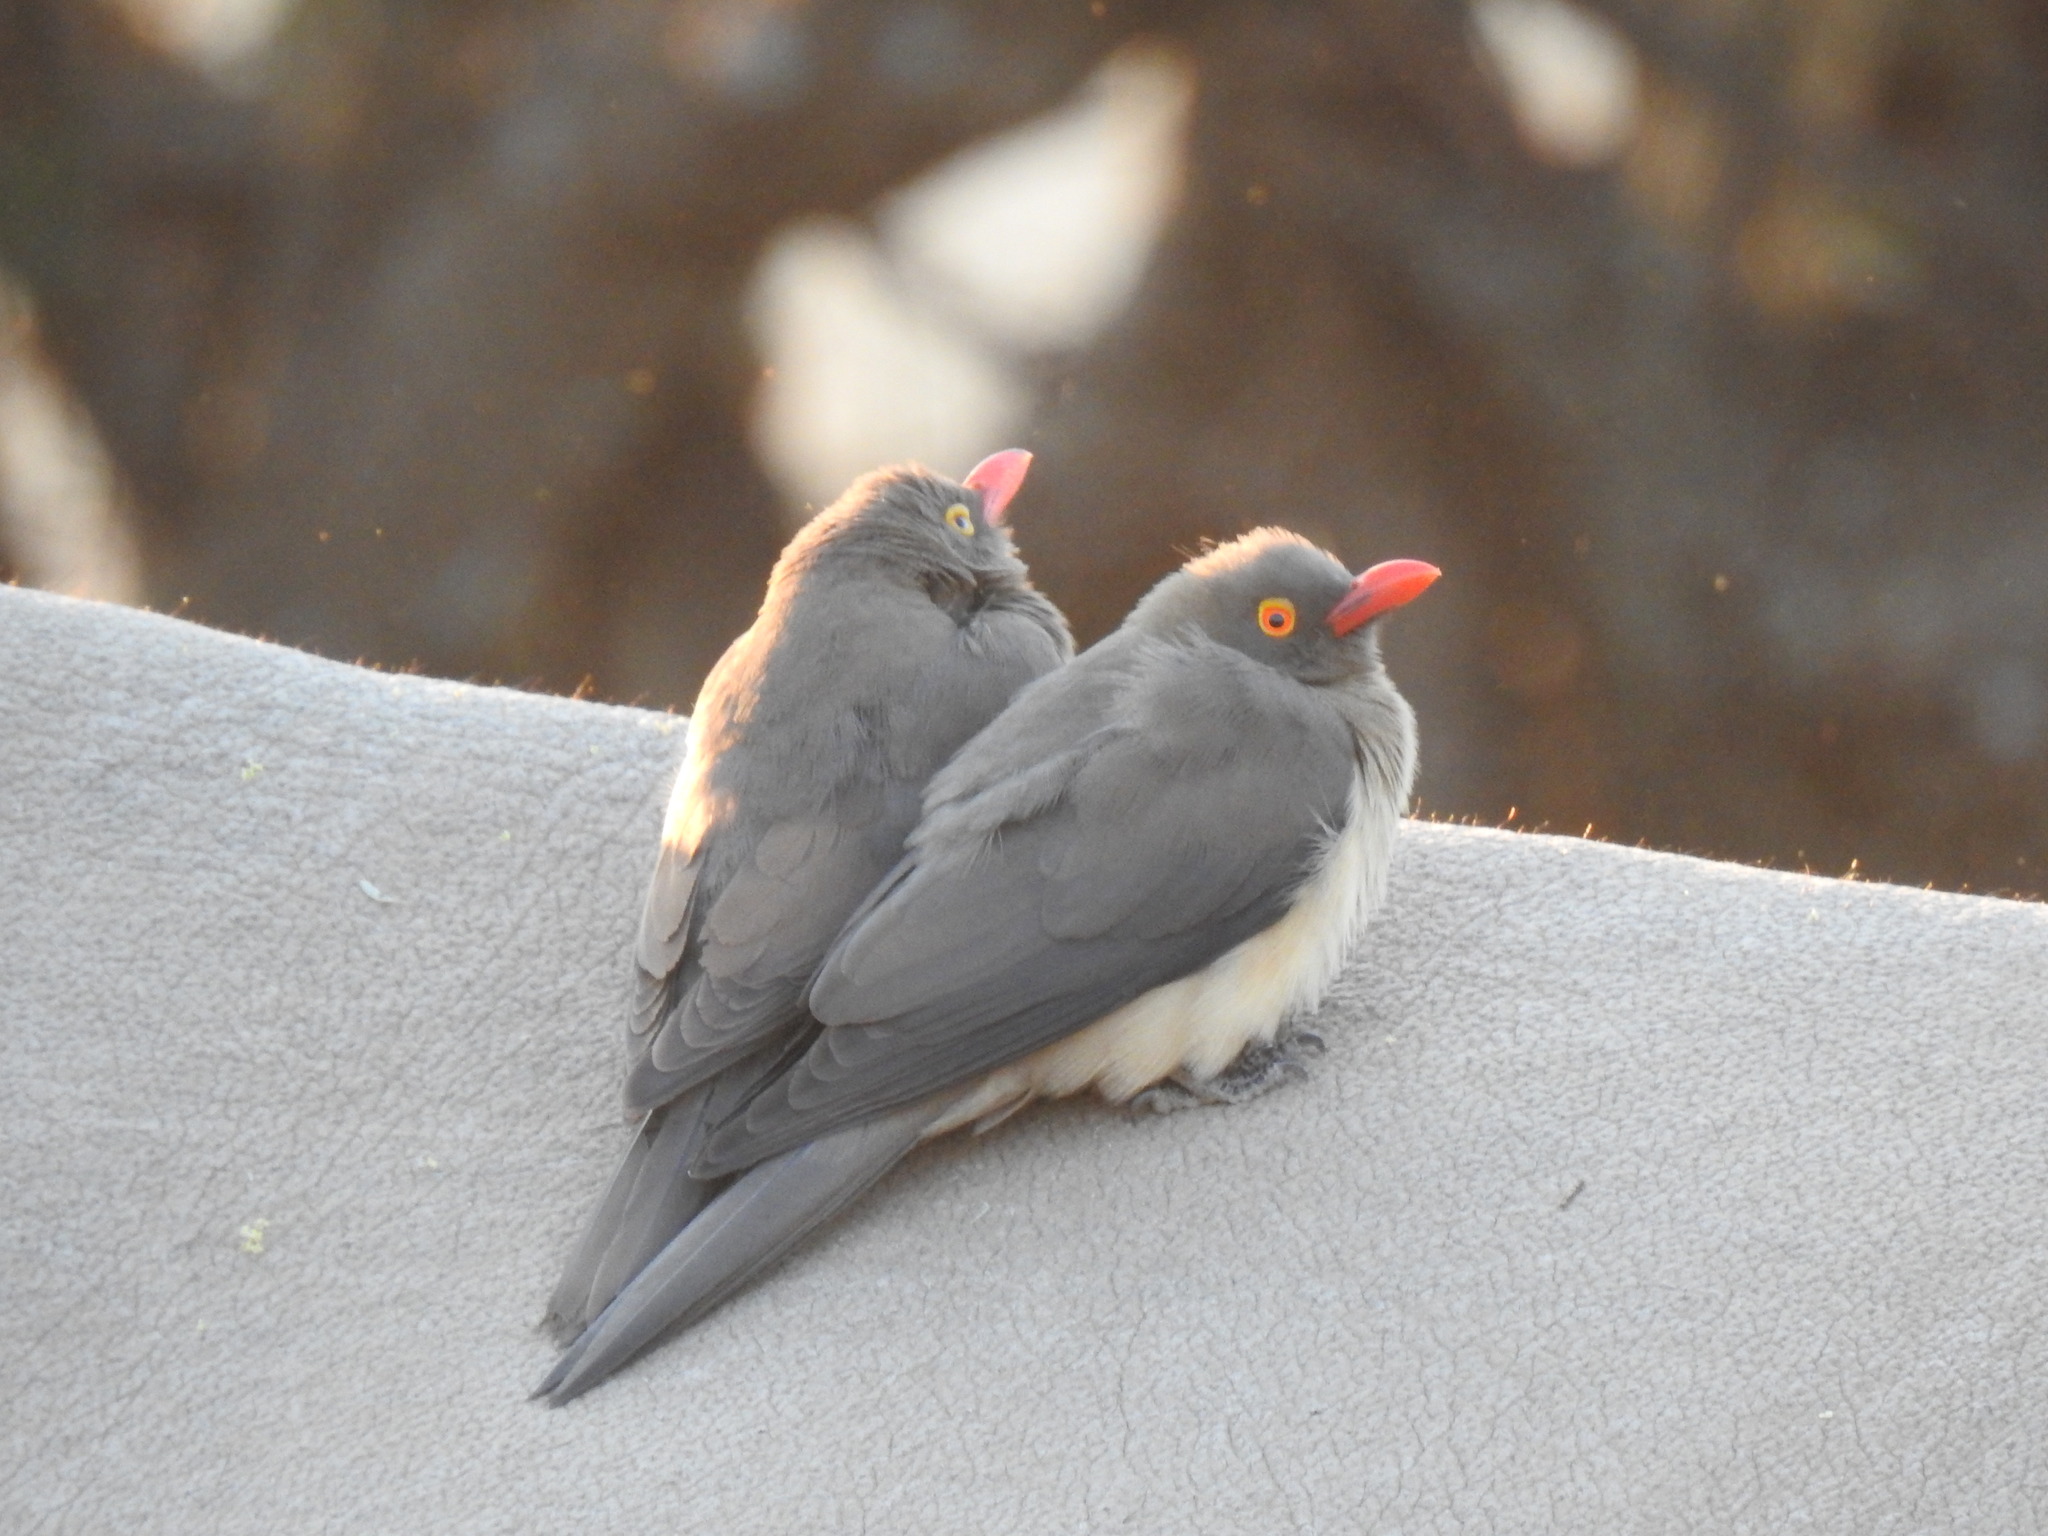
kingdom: Animalia
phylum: Chordata
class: Aves
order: Passeriformes
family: Buphagidae
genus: Buphagus
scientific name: Buphagus erythrorhynchus
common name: Red-billed oxpecker
